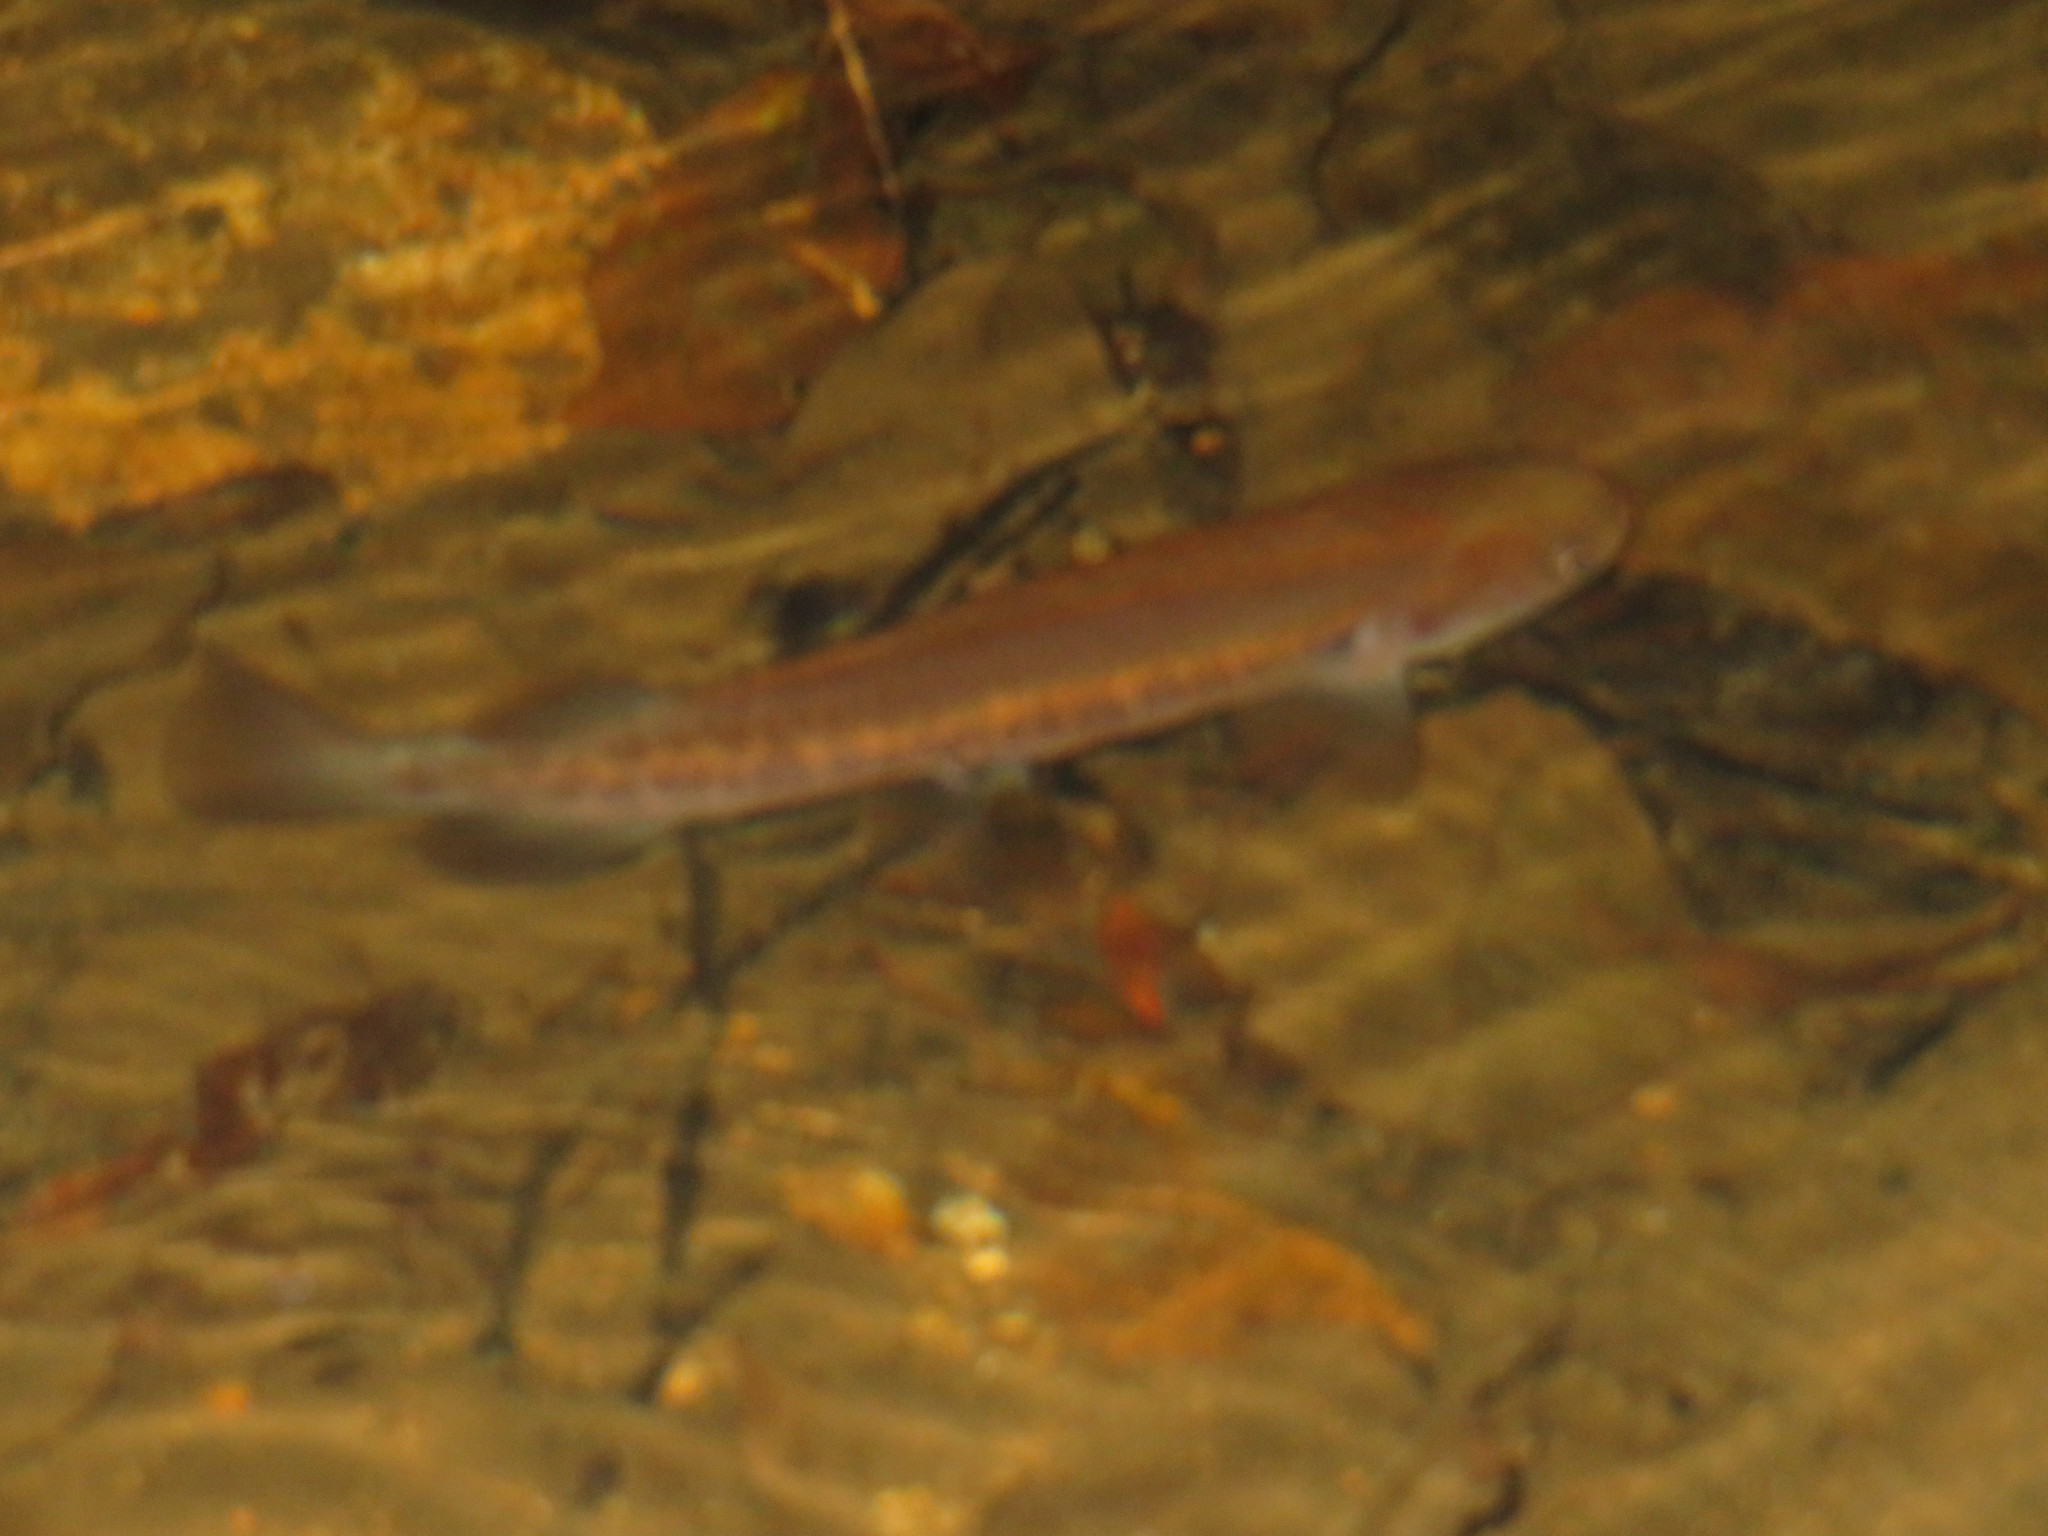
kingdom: Animalia
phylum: Chordata
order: Osmeriformes
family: Galaxiidae
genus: Galaxias
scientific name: Galaxias fasciatus
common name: Banded kokopu
